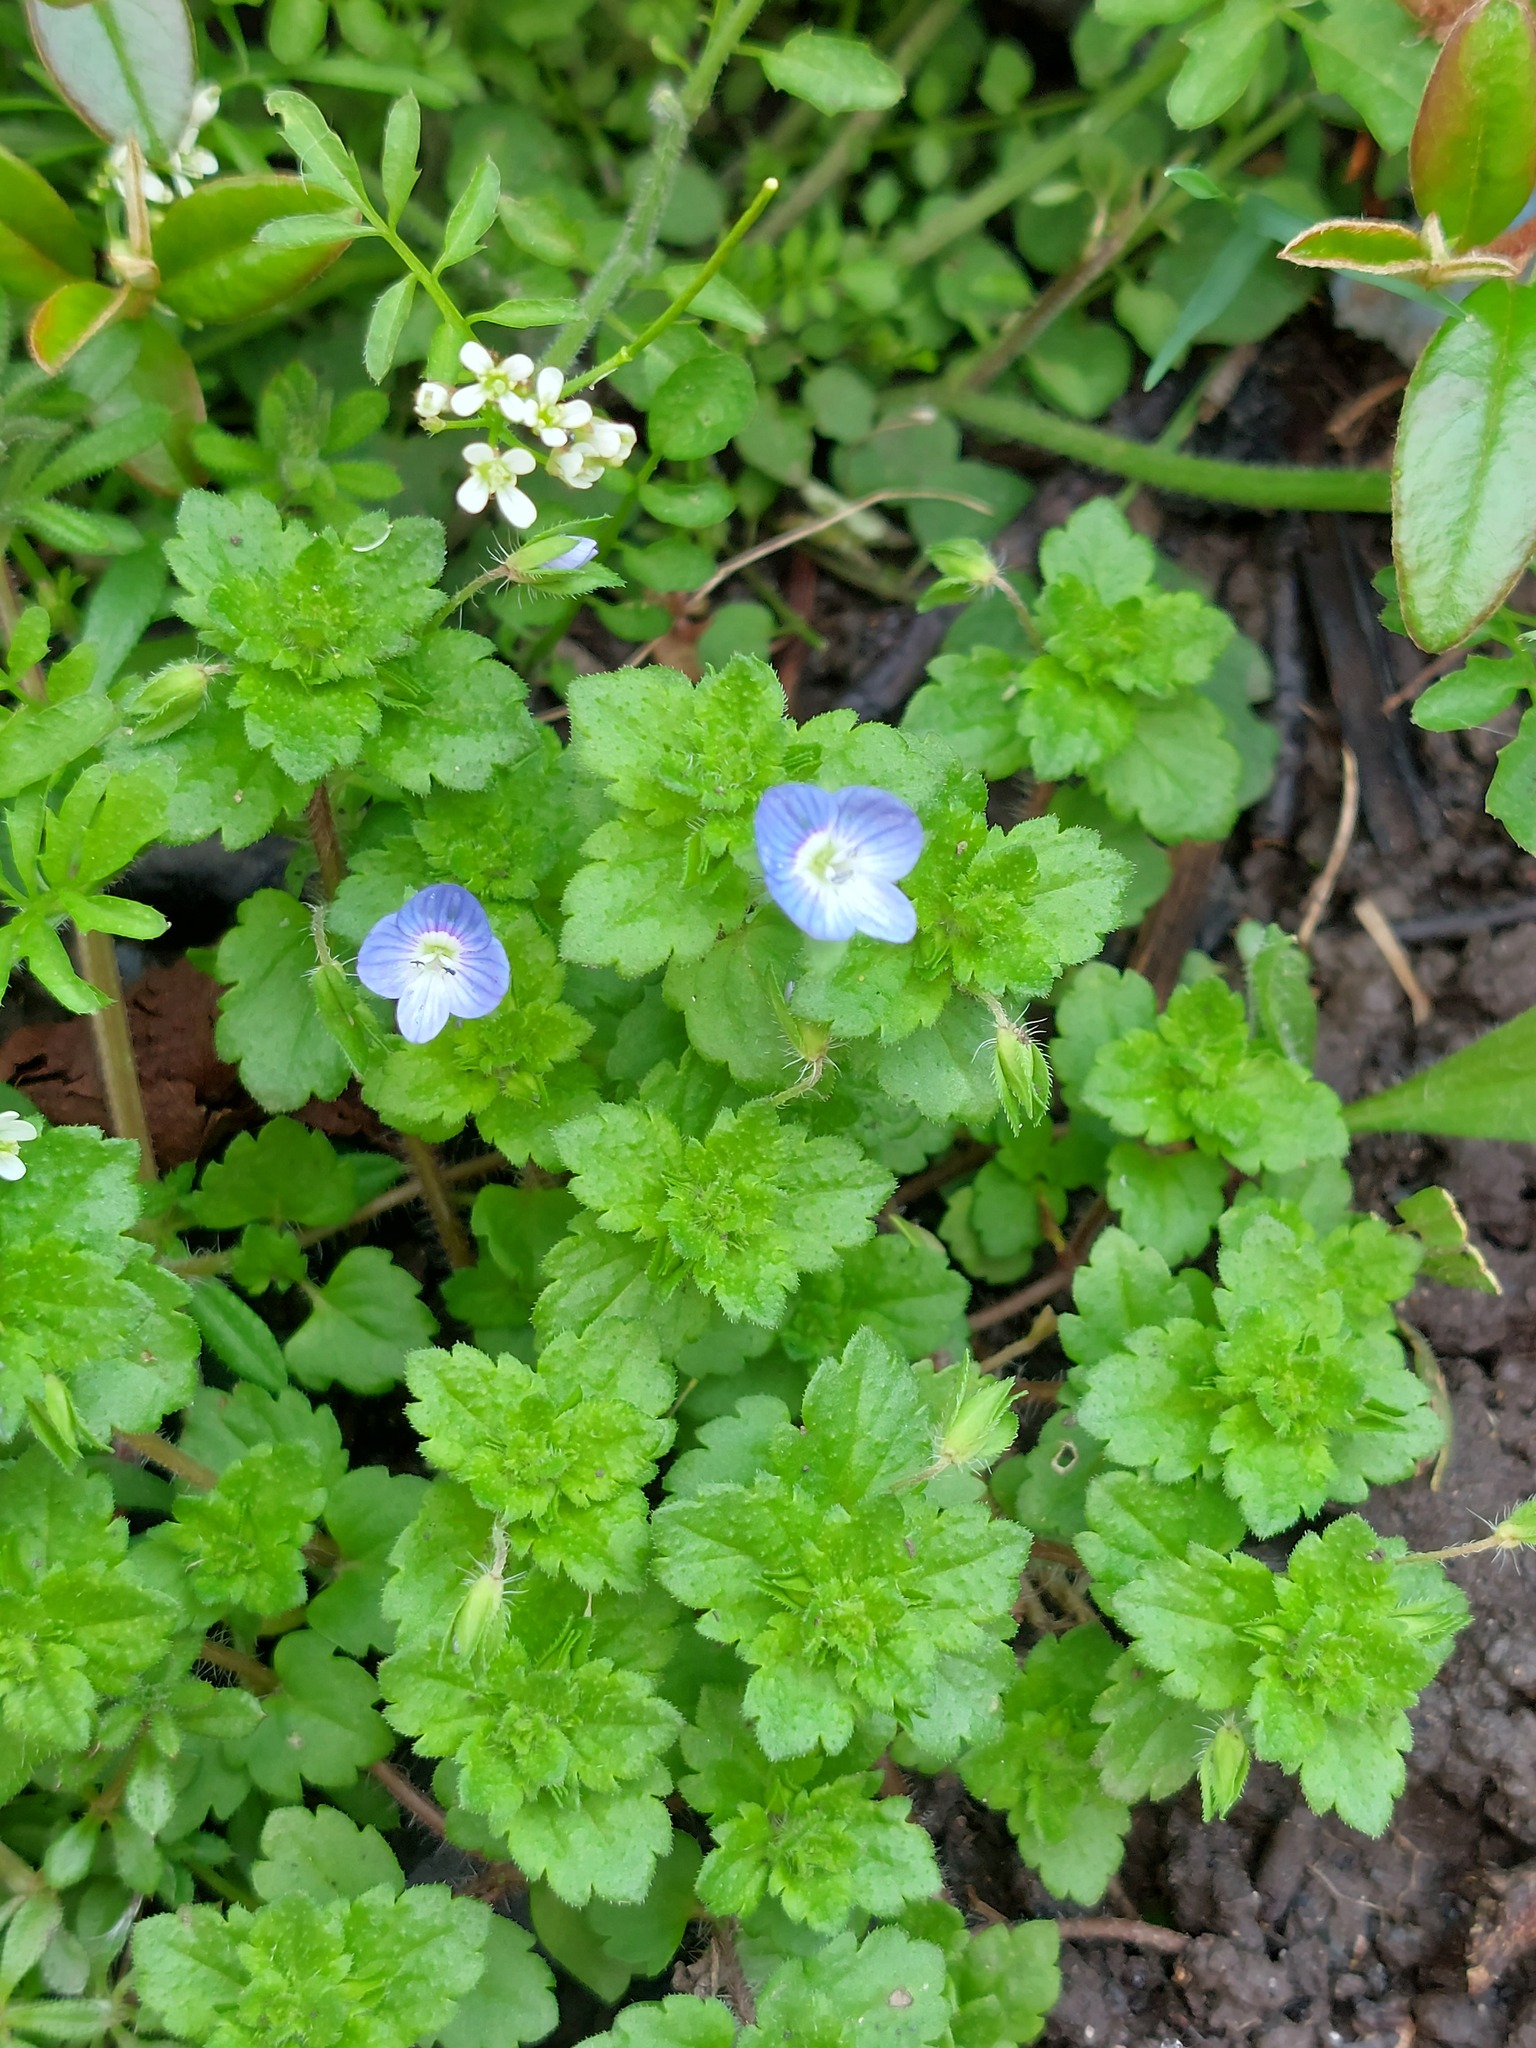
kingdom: Plantae
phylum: Tracheophyta
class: Magnoliopsida
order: Lamiales
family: Plantaginaceae
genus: Veronica
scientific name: Veronica persica
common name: Common field-speedwell
